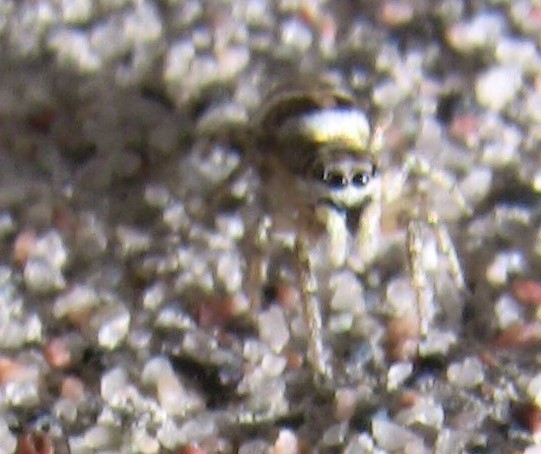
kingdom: Animalia
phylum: Arthropoda
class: Arachnida
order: Araneae
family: Salticidae
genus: Salticus
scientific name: Salticus scenicus
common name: Zebra jumper
